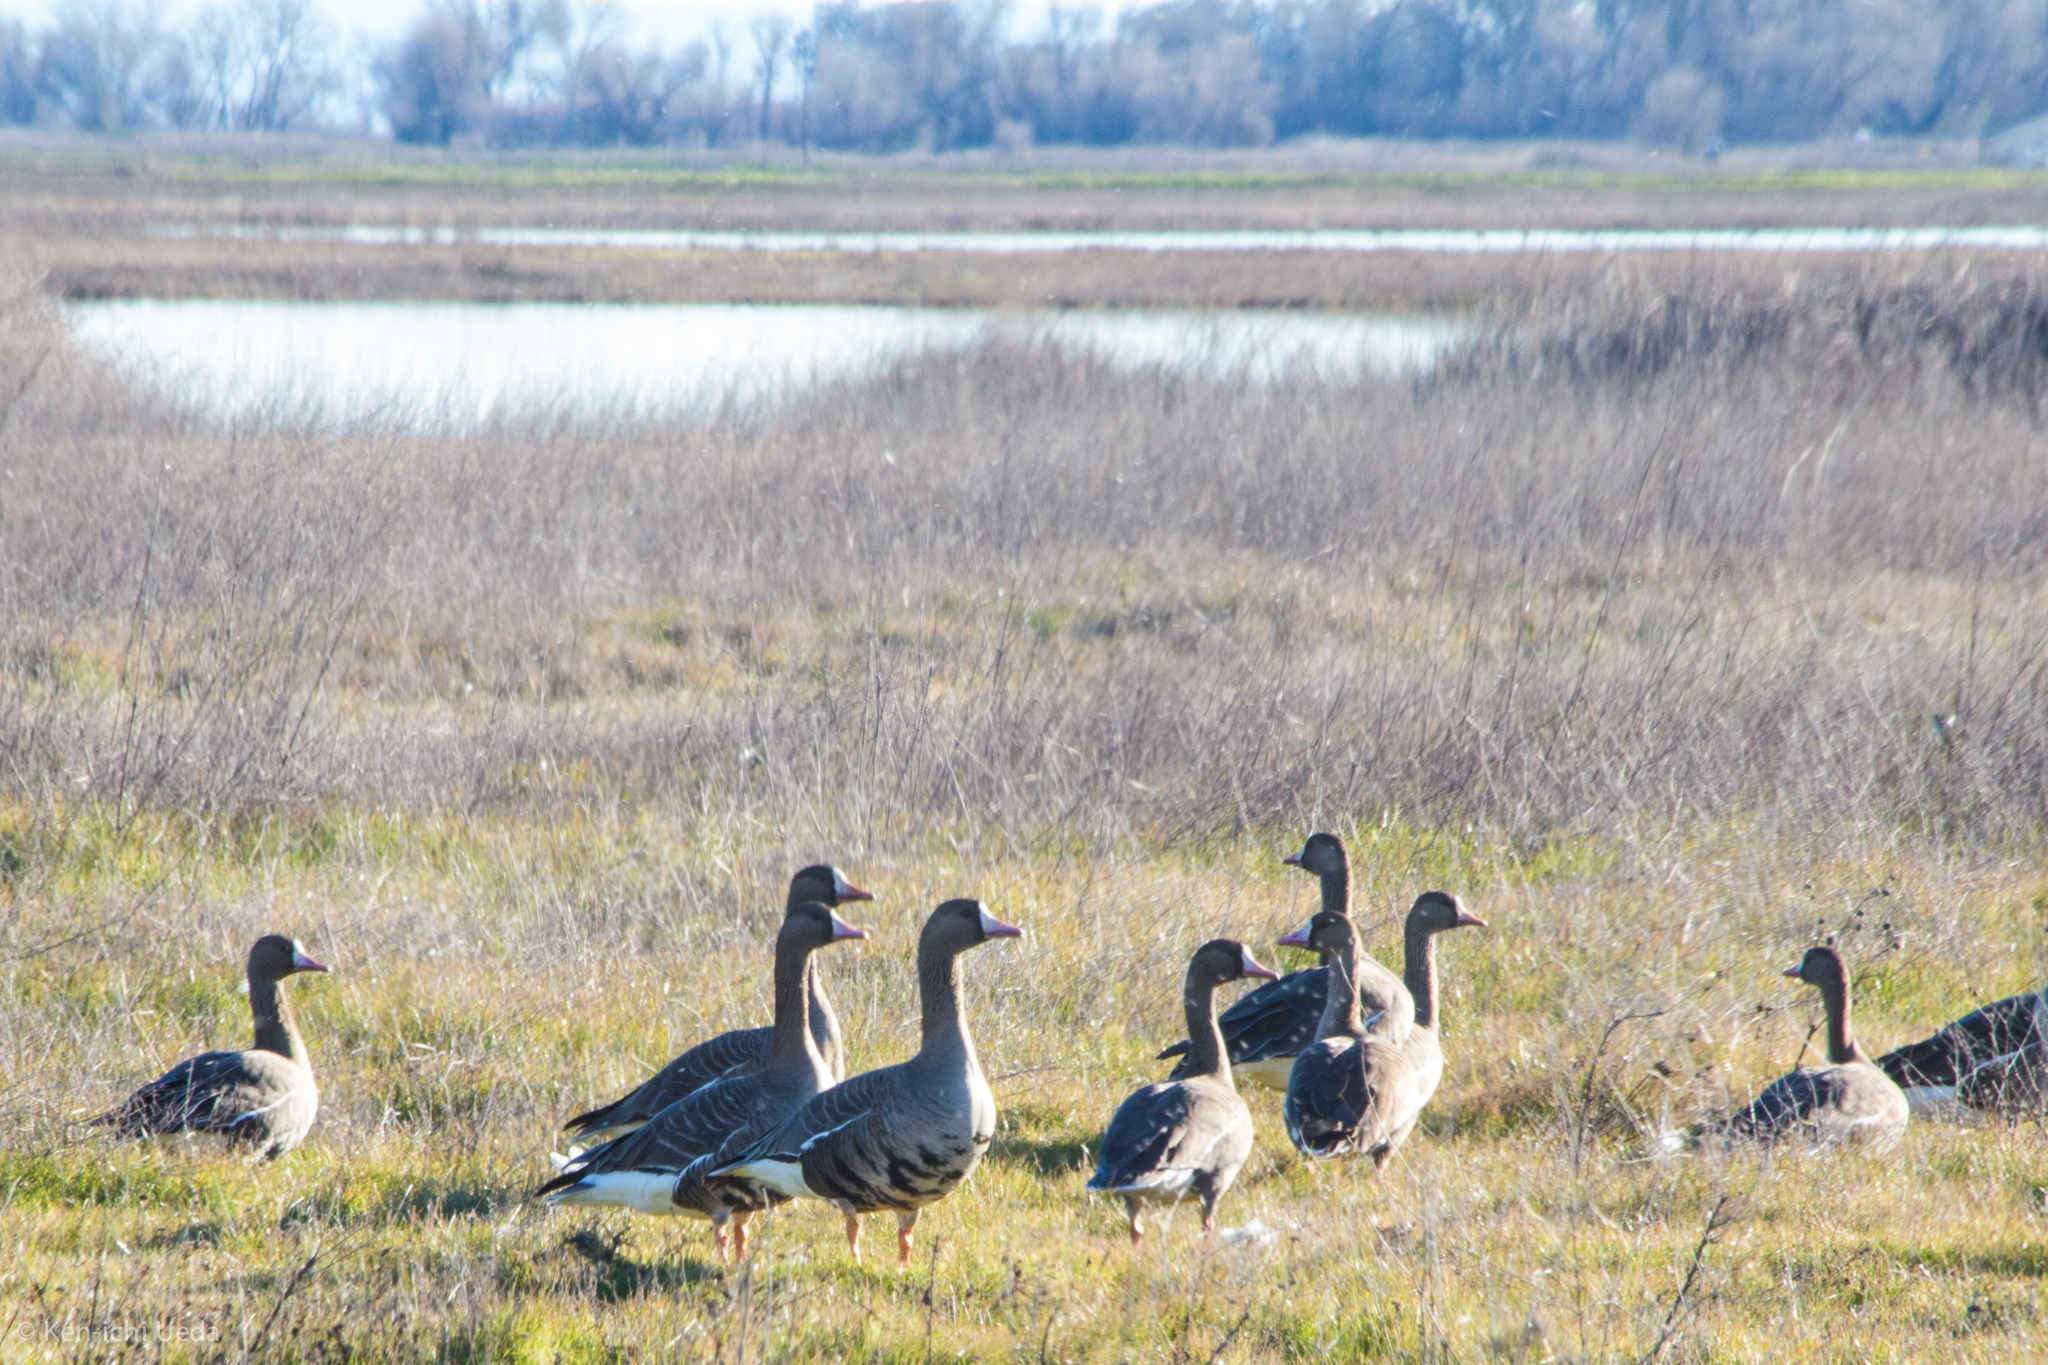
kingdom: Animalia
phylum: Chordata
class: Aves
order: Anseriformes
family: Anatidae
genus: Anser
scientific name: Anser albifrons
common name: Greater white-fronted goose
